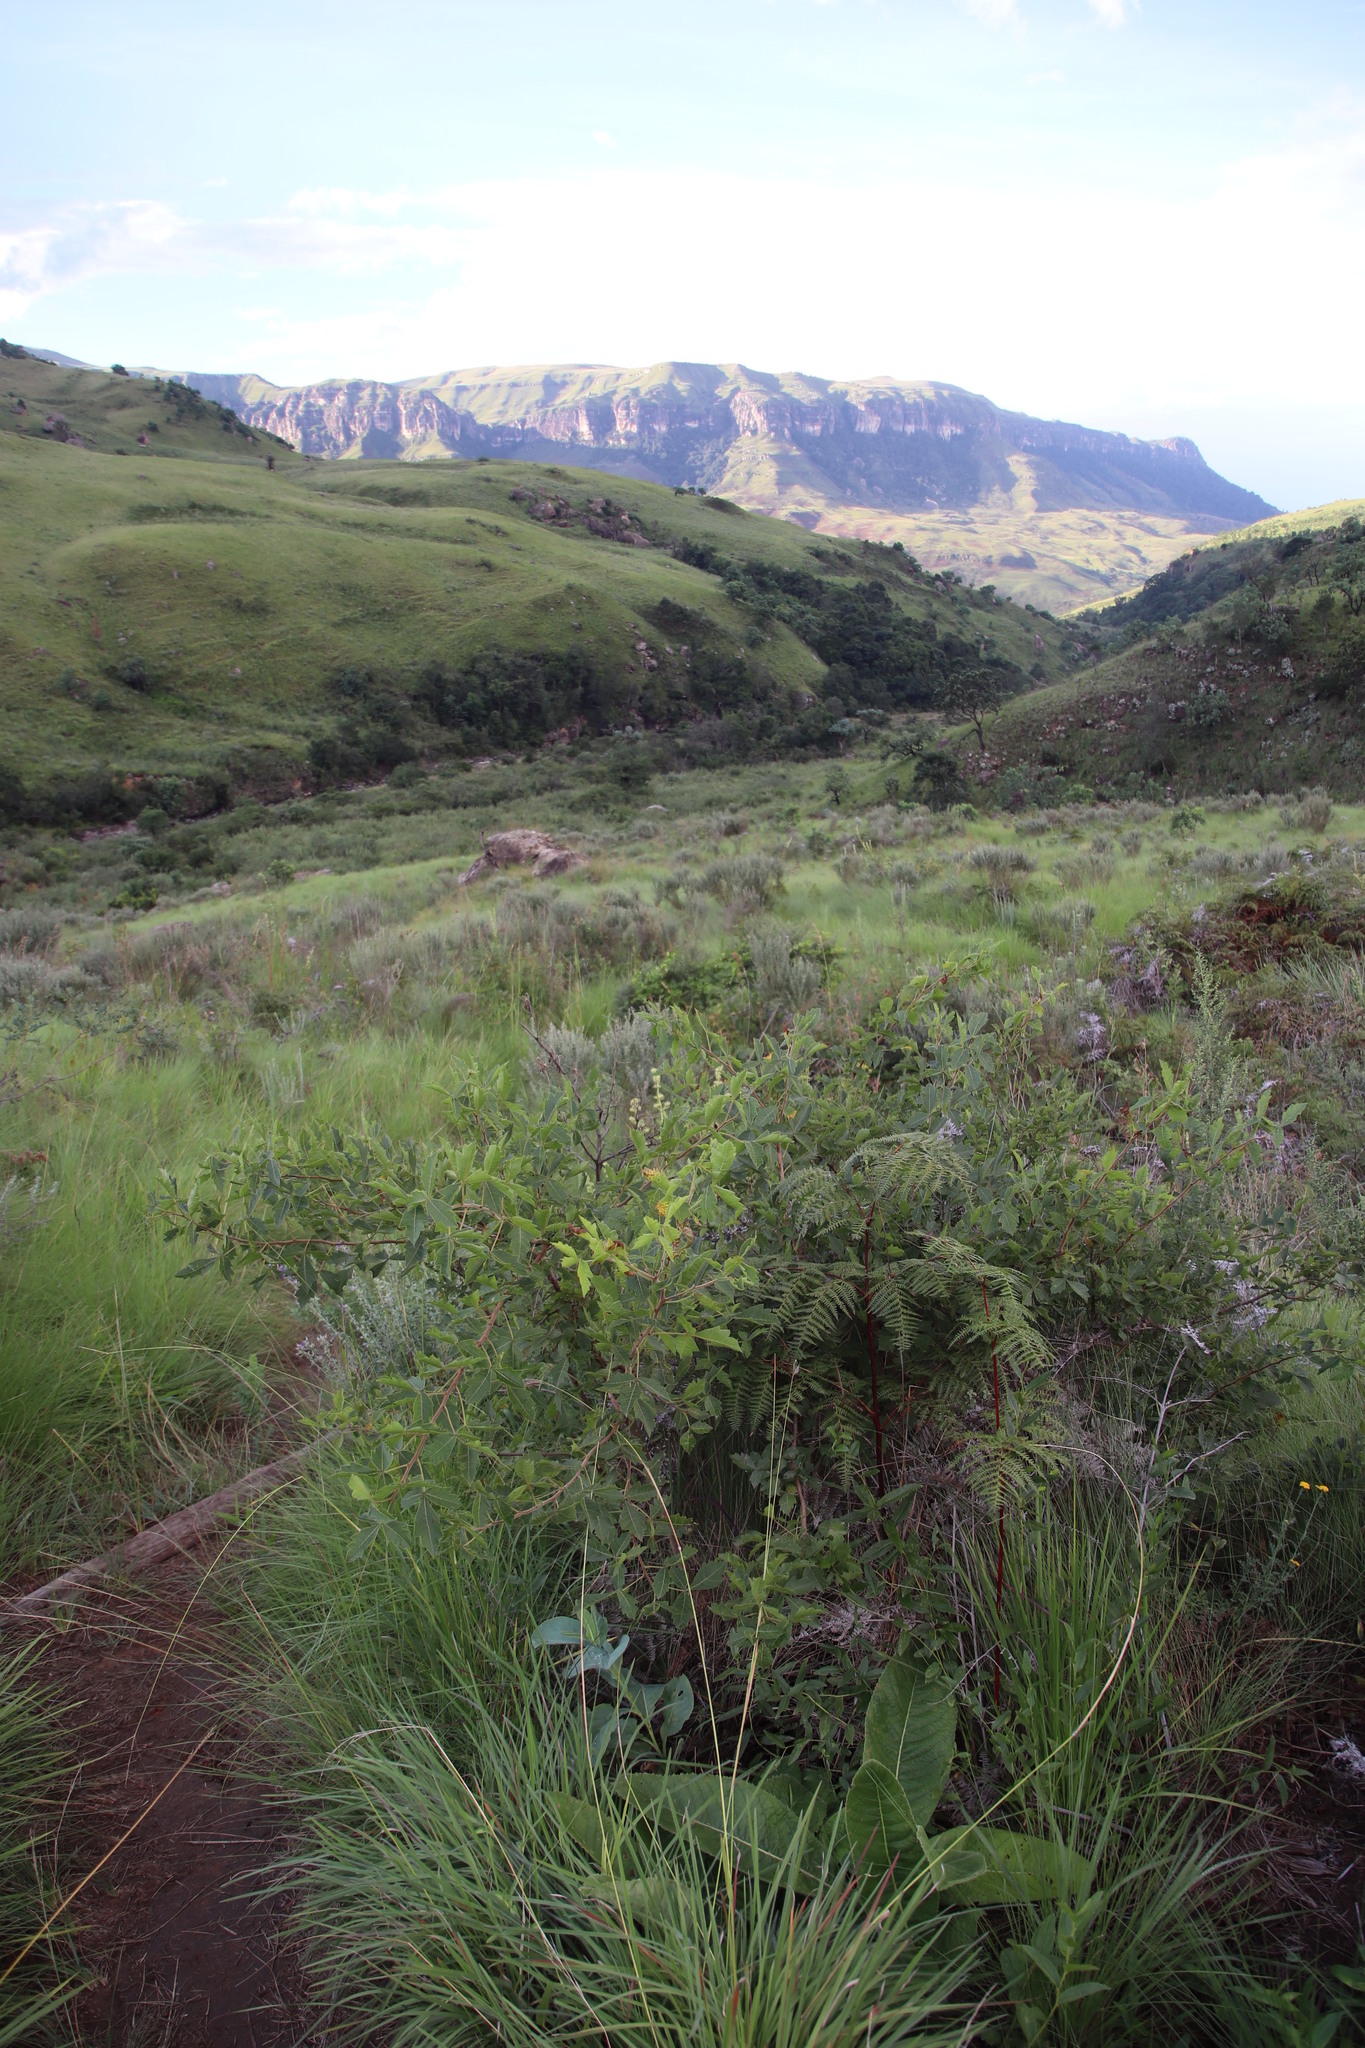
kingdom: Plantae
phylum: Tracheophyta
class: Magnoliopsida
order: Sapindales
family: Anacardiaceae
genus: Searsia
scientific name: Searsia dentata
